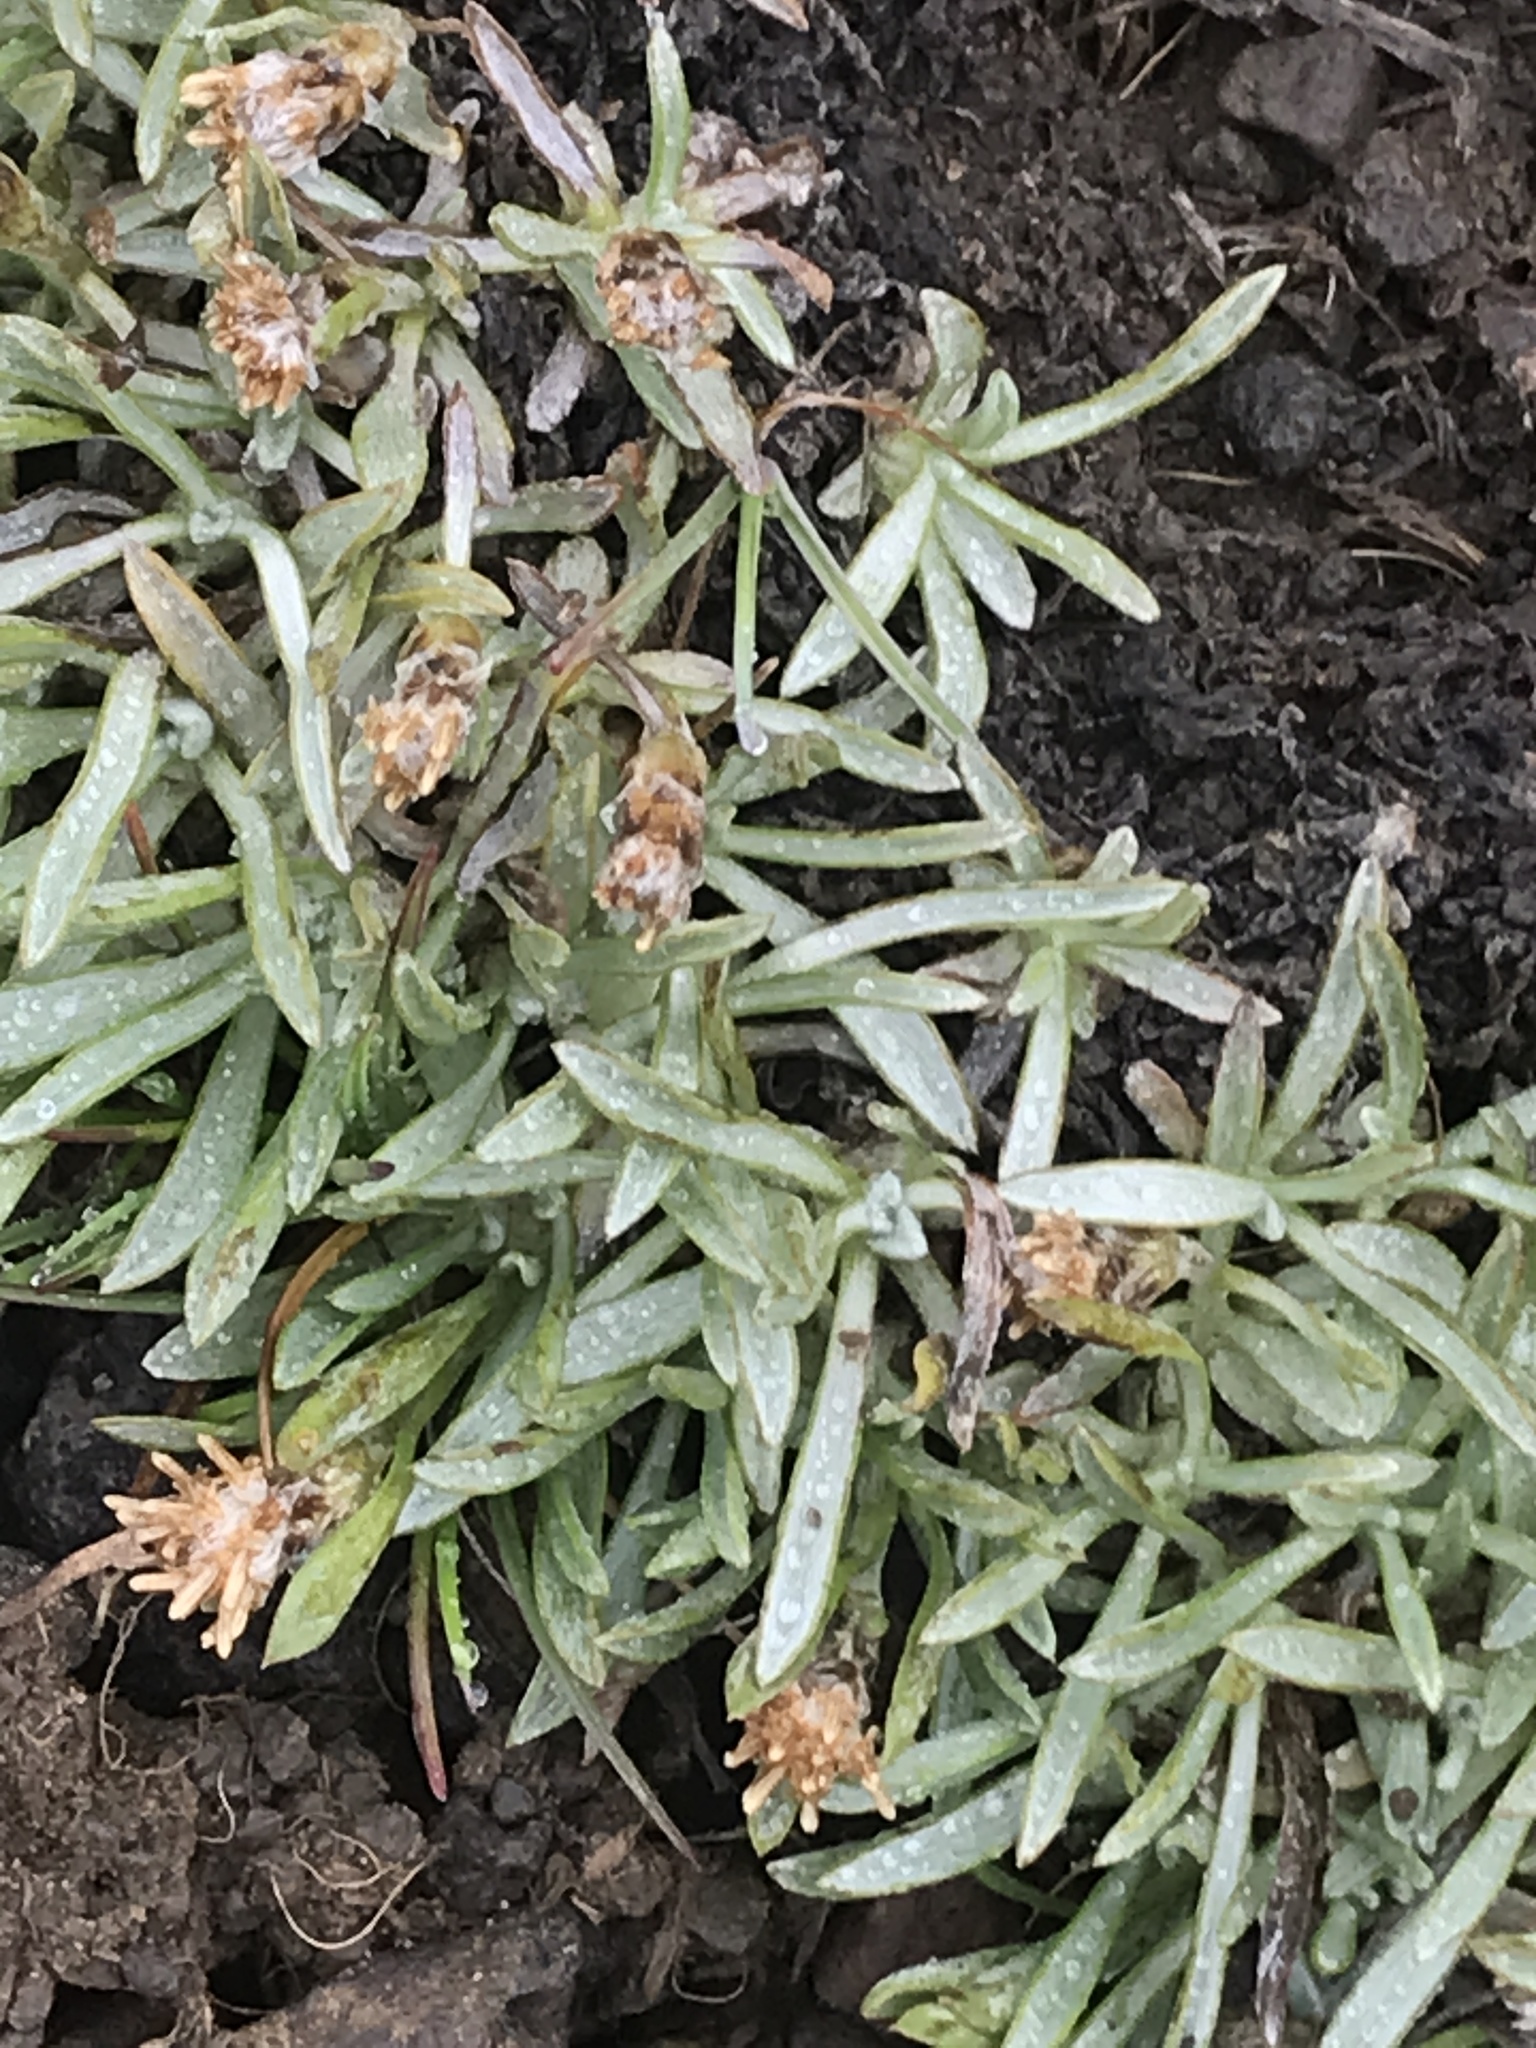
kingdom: Plantae
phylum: Tracheophyta
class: Magnoliopsida
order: Asterales
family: Asteraceae
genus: Antennaria
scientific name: Antennaria dimorpha
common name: Cushion pussytoes
